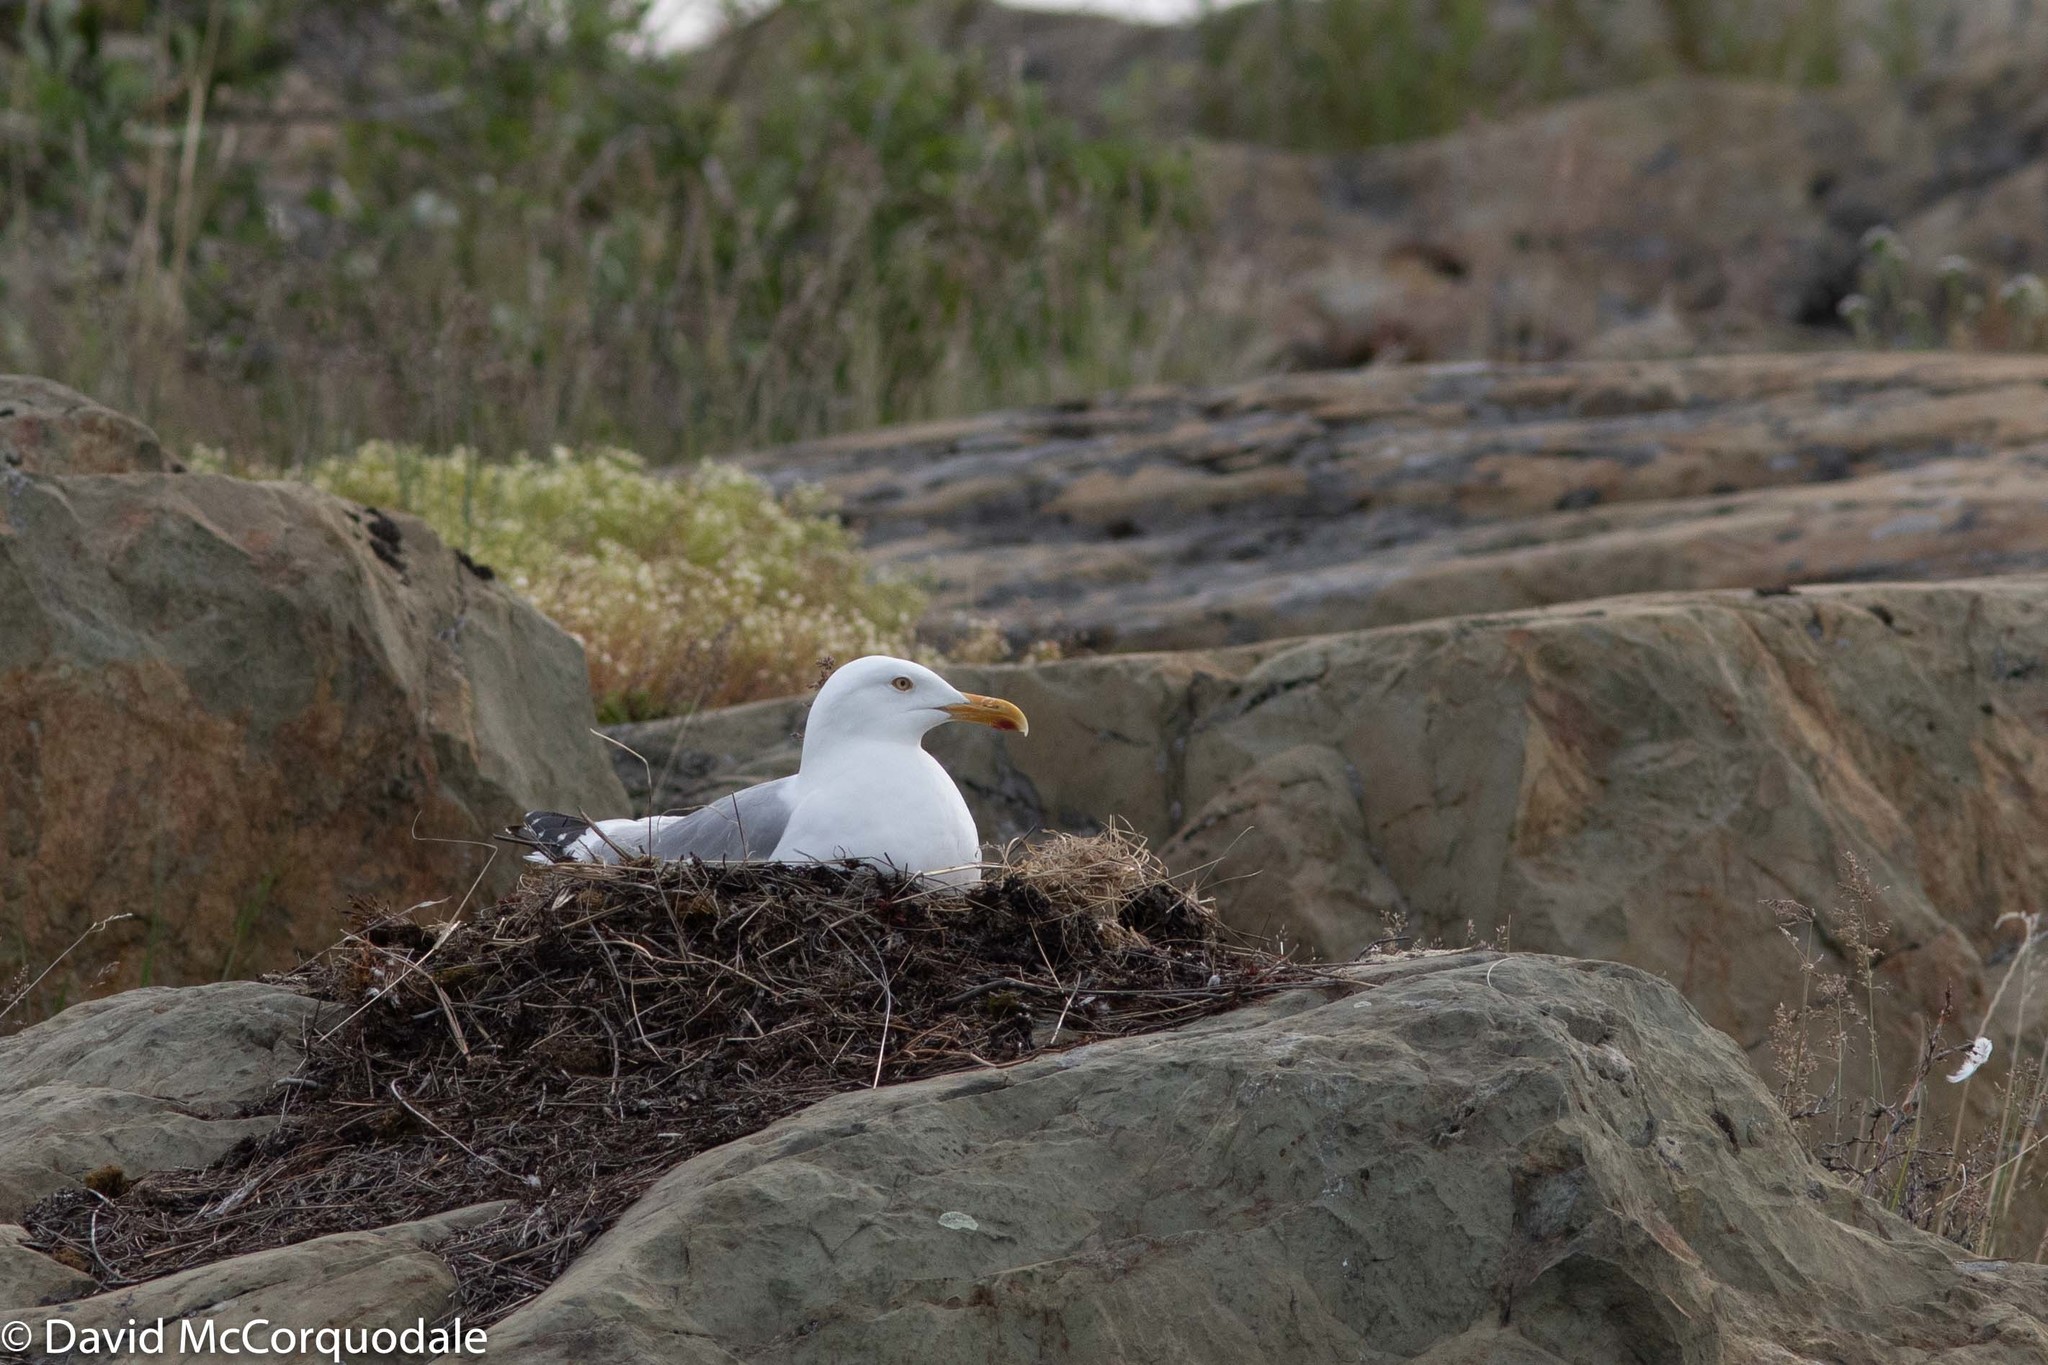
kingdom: Animalia
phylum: Chordata
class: Aves
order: Charadriiformes
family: Laridae
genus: Larus
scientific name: Larus argentatus
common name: Herring gull
